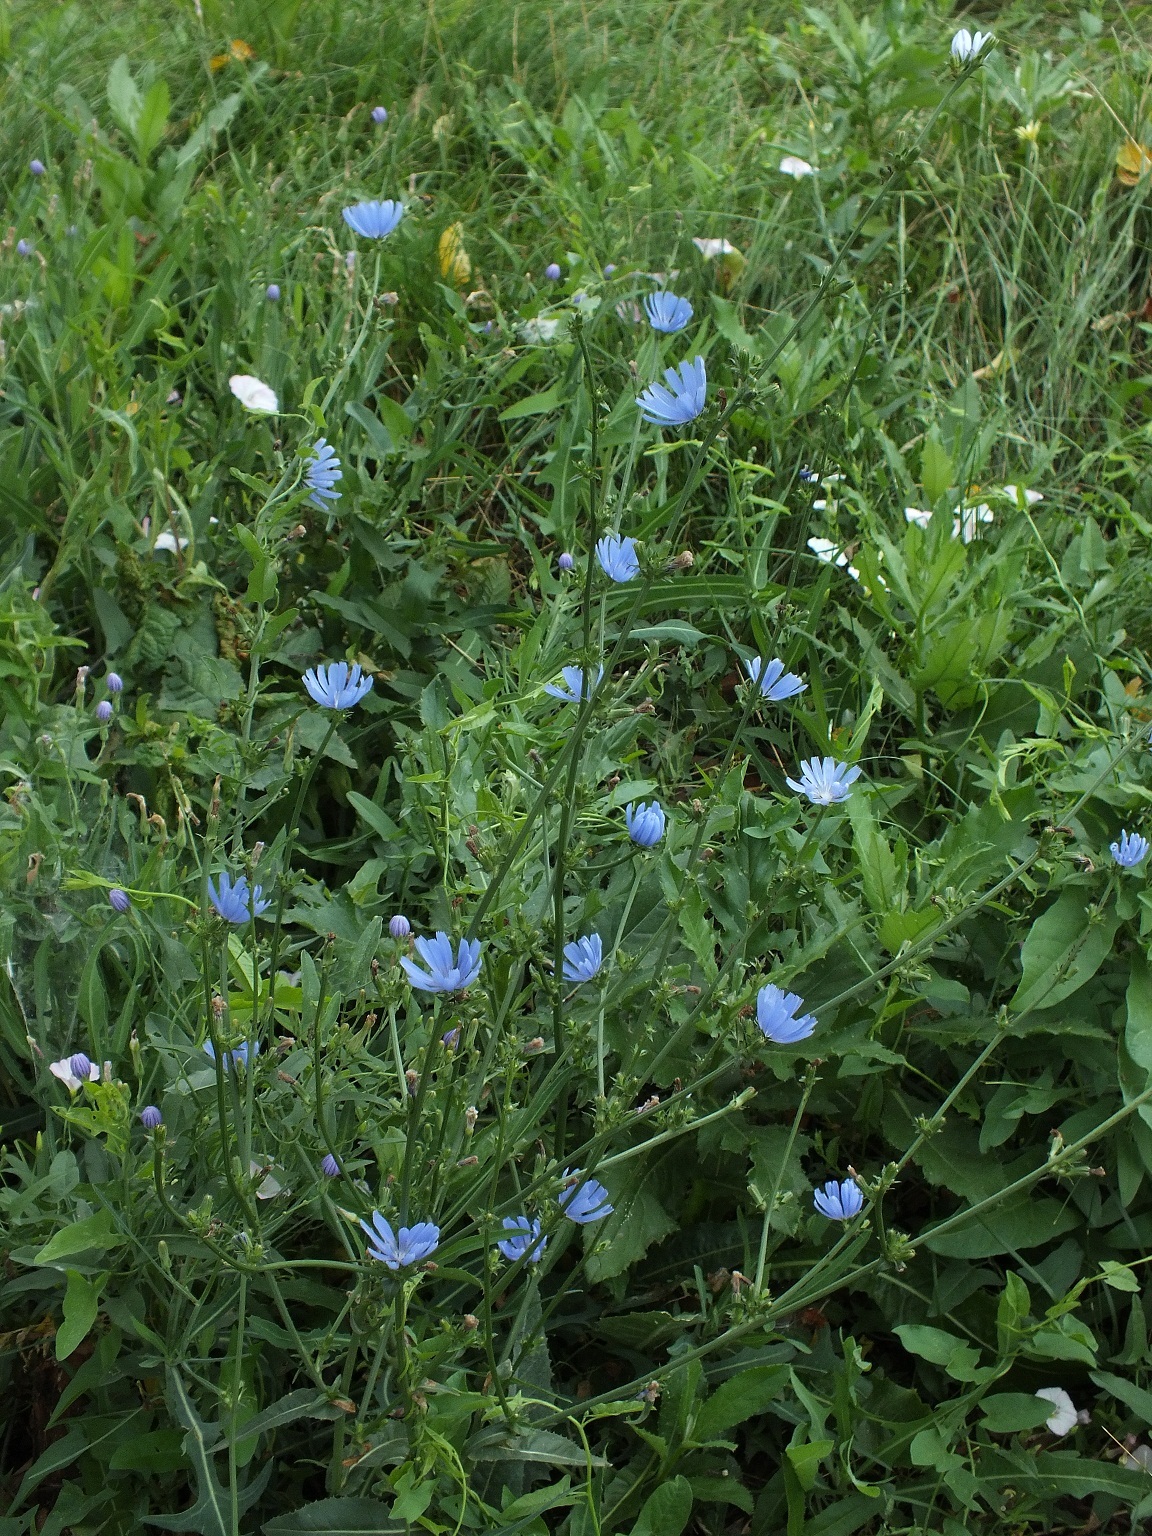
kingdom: Plantae
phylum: Tracheophyta
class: Magnoliopsida
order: Asterales
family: Asteraceae
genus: Cichorium
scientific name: Cichorium intybus
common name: Chicory
